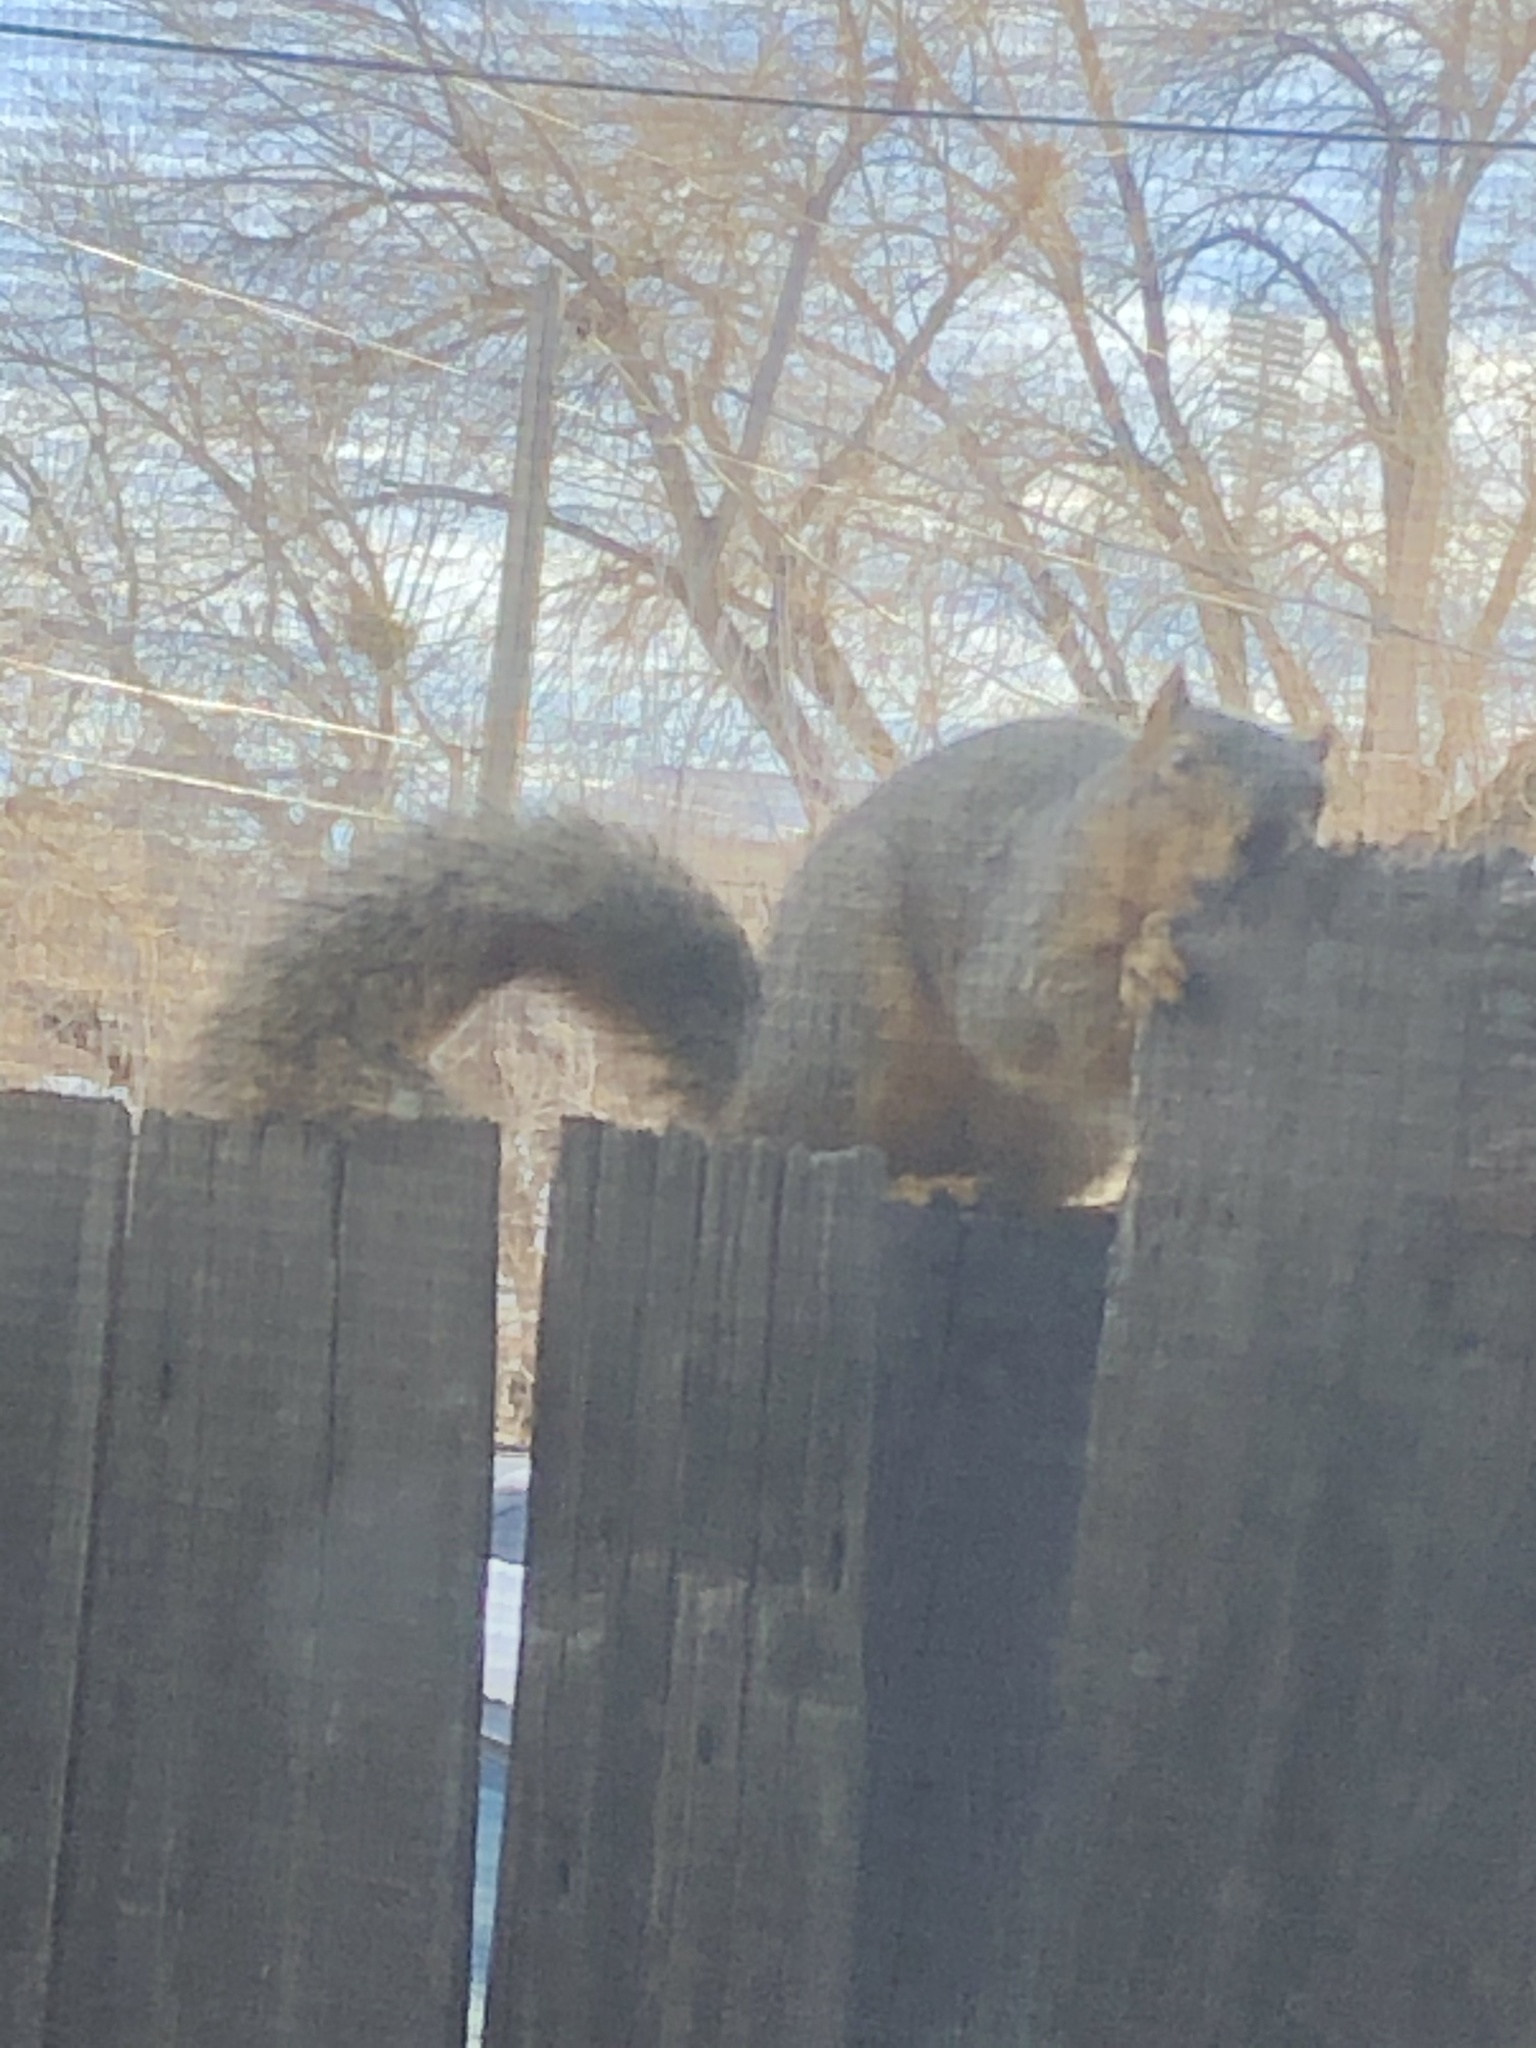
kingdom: Animalia
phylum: Chordata
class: Mammalia
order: Rodentia
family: Sciuridae
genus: Sciurus
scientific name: Sciurus niger
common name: Fox squirrel
